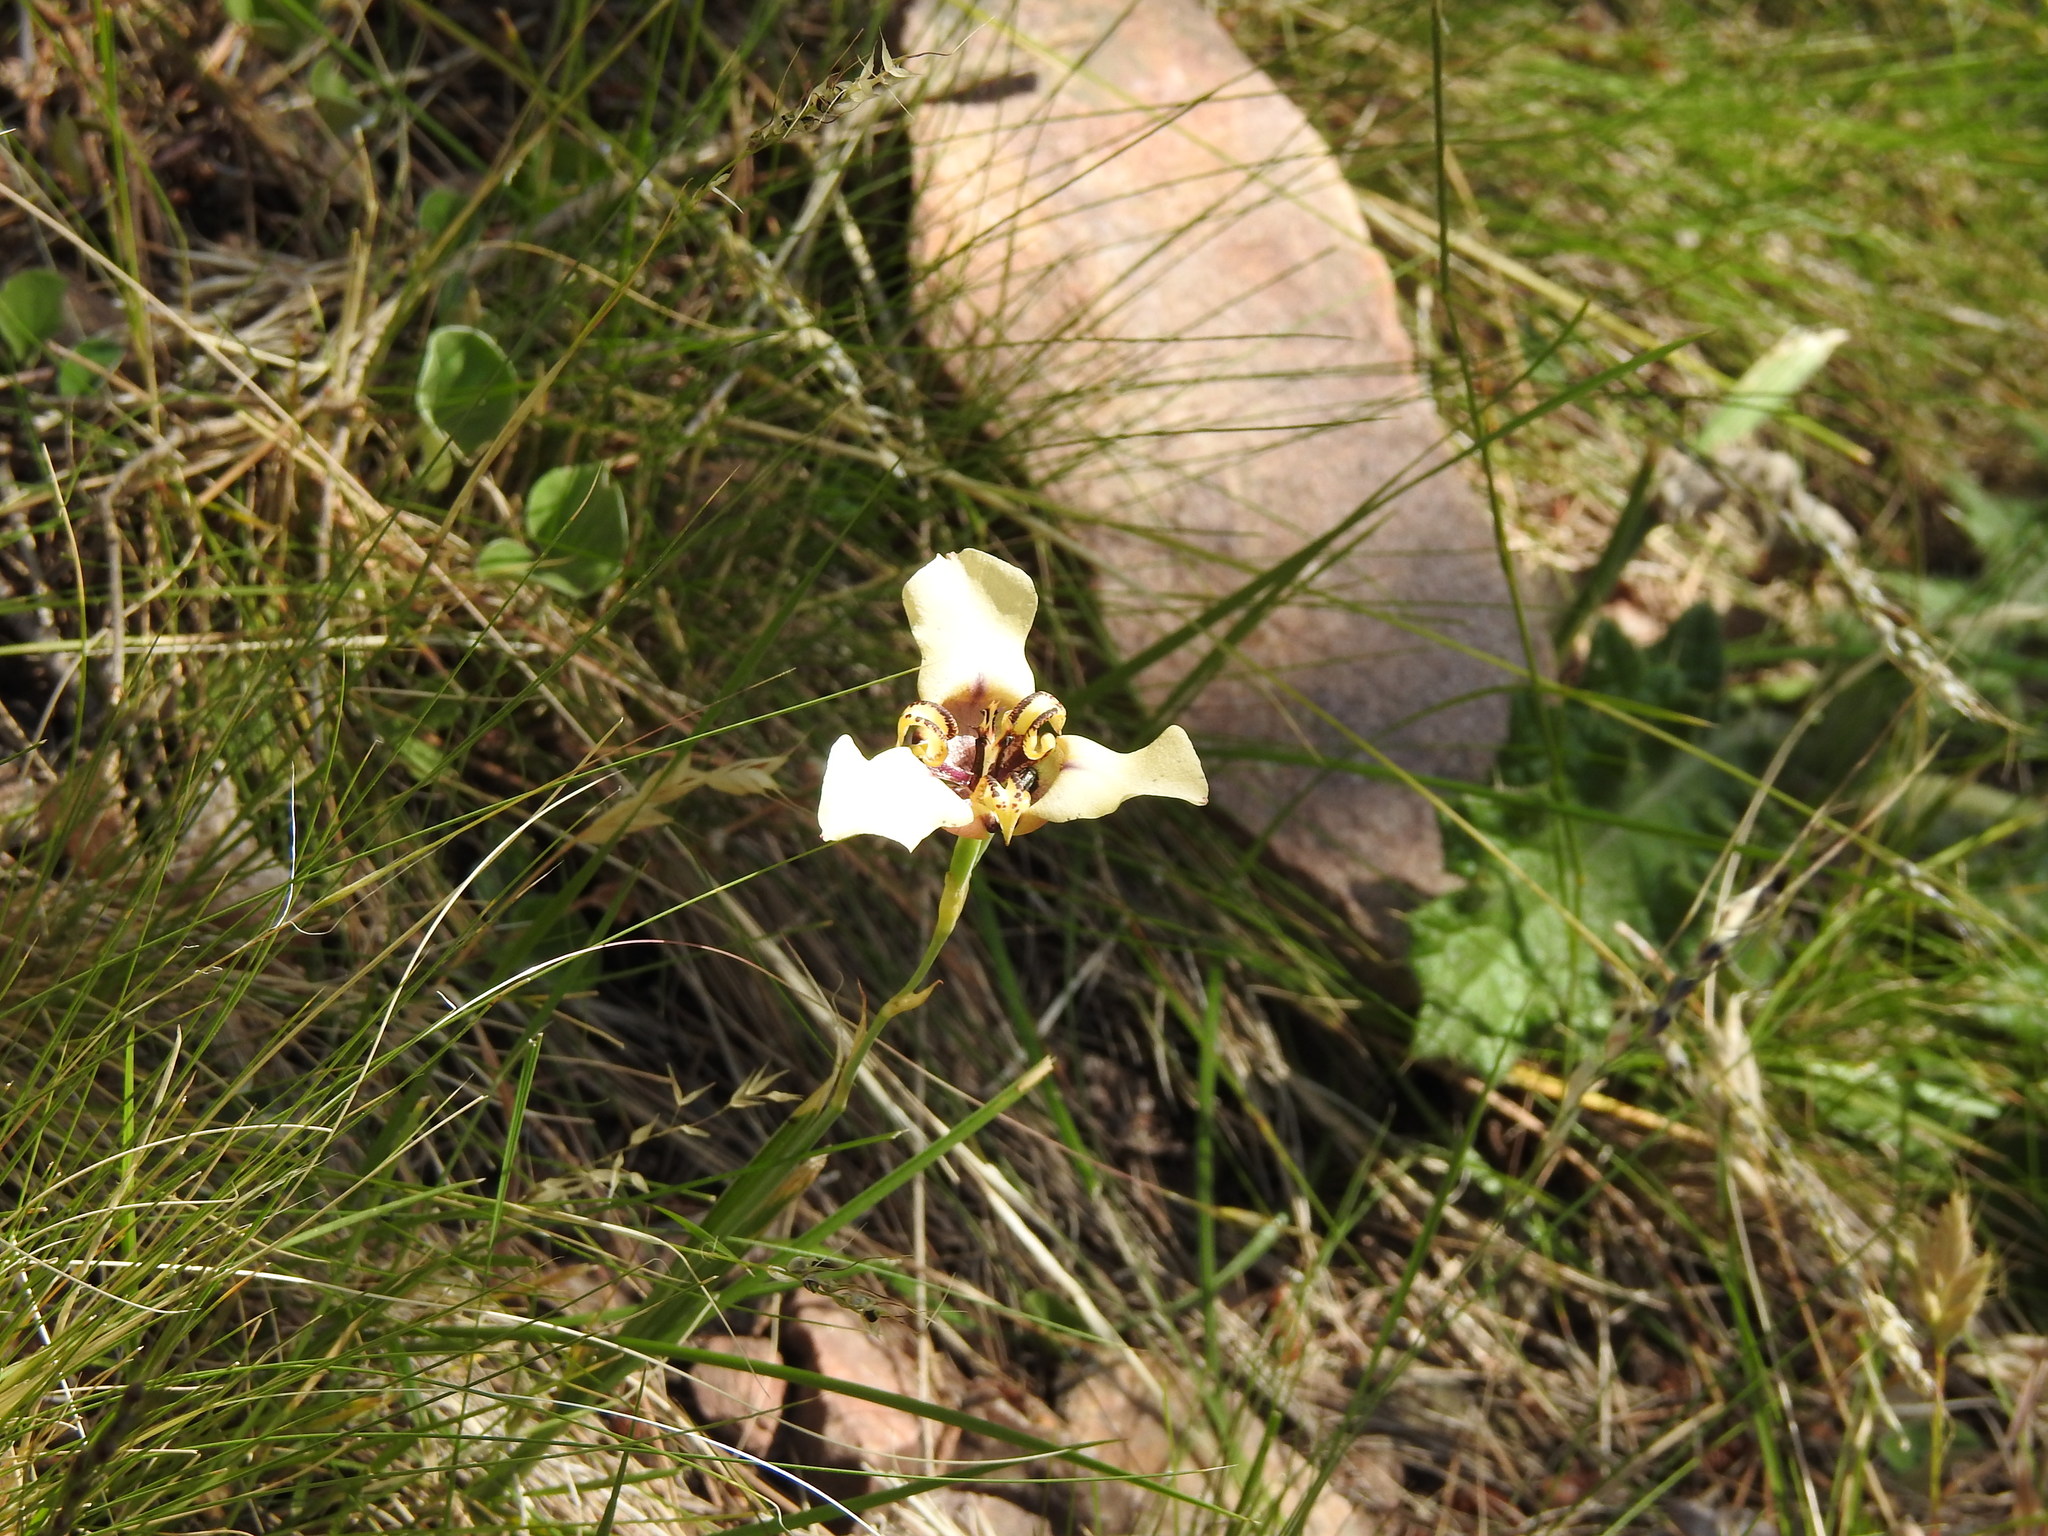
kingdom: Plantae
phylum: Tracheophyta
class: Liliopsida
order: Asparagales
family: Iridaceae
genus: Cypella
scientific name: Cypella herbertii
